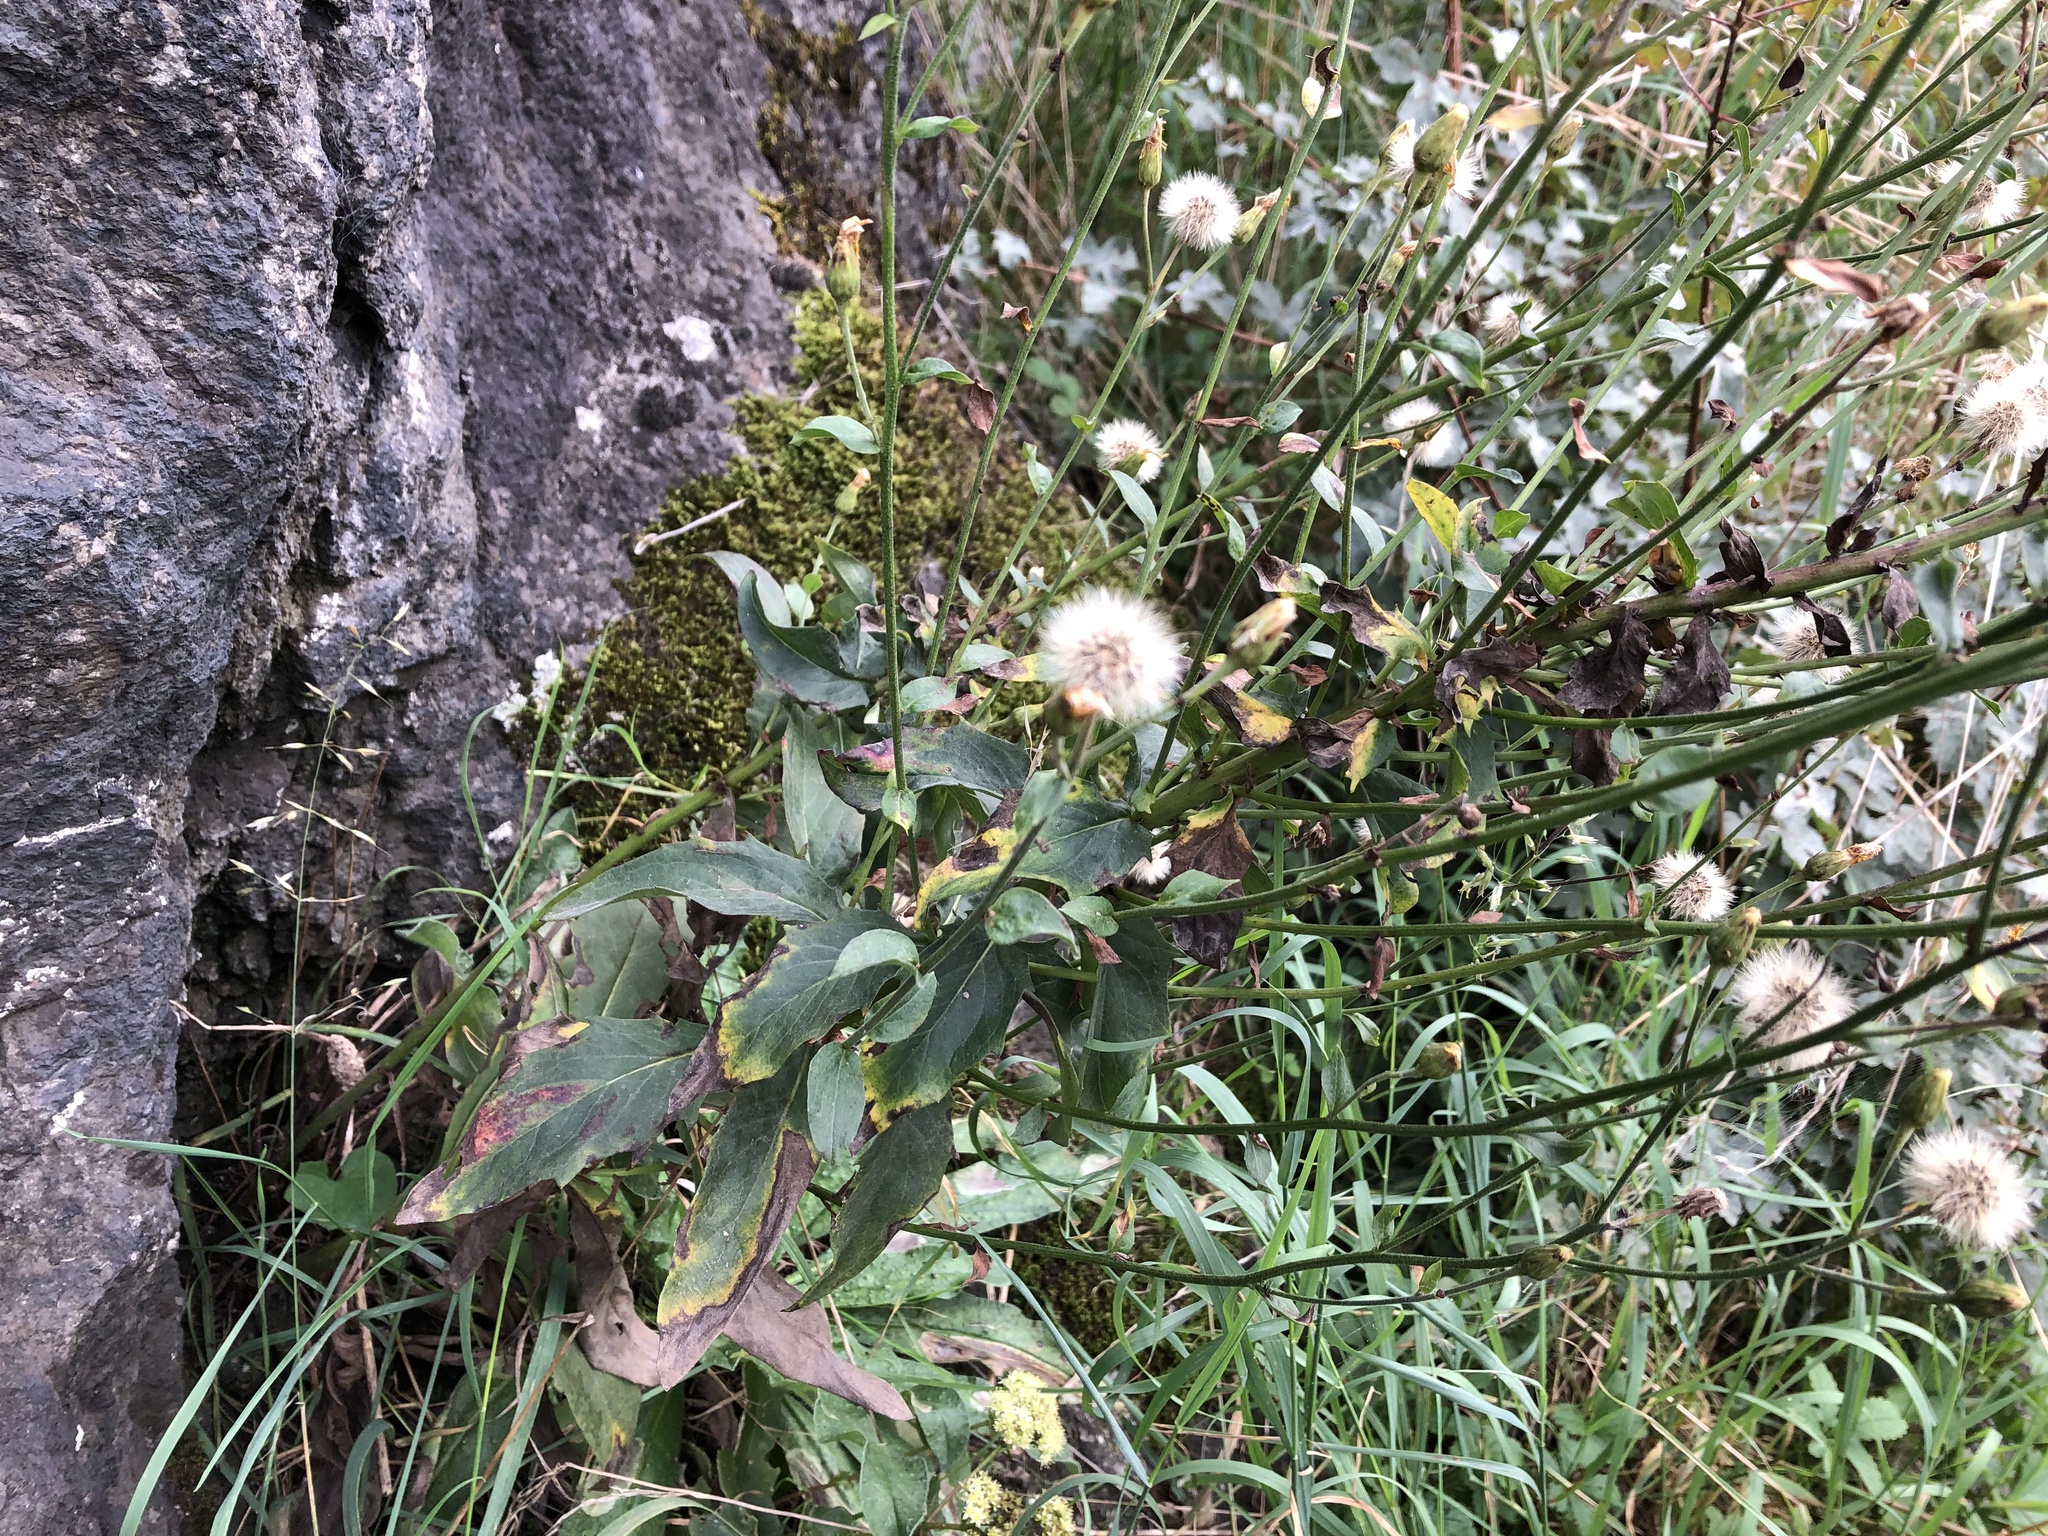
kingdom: Plantae
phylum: Tracheophyta
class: Magnoliopsida
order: Asterales
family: Asteraceae
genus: Hieracium
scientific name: Hieracium sabaudum
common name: New england hawkweed
